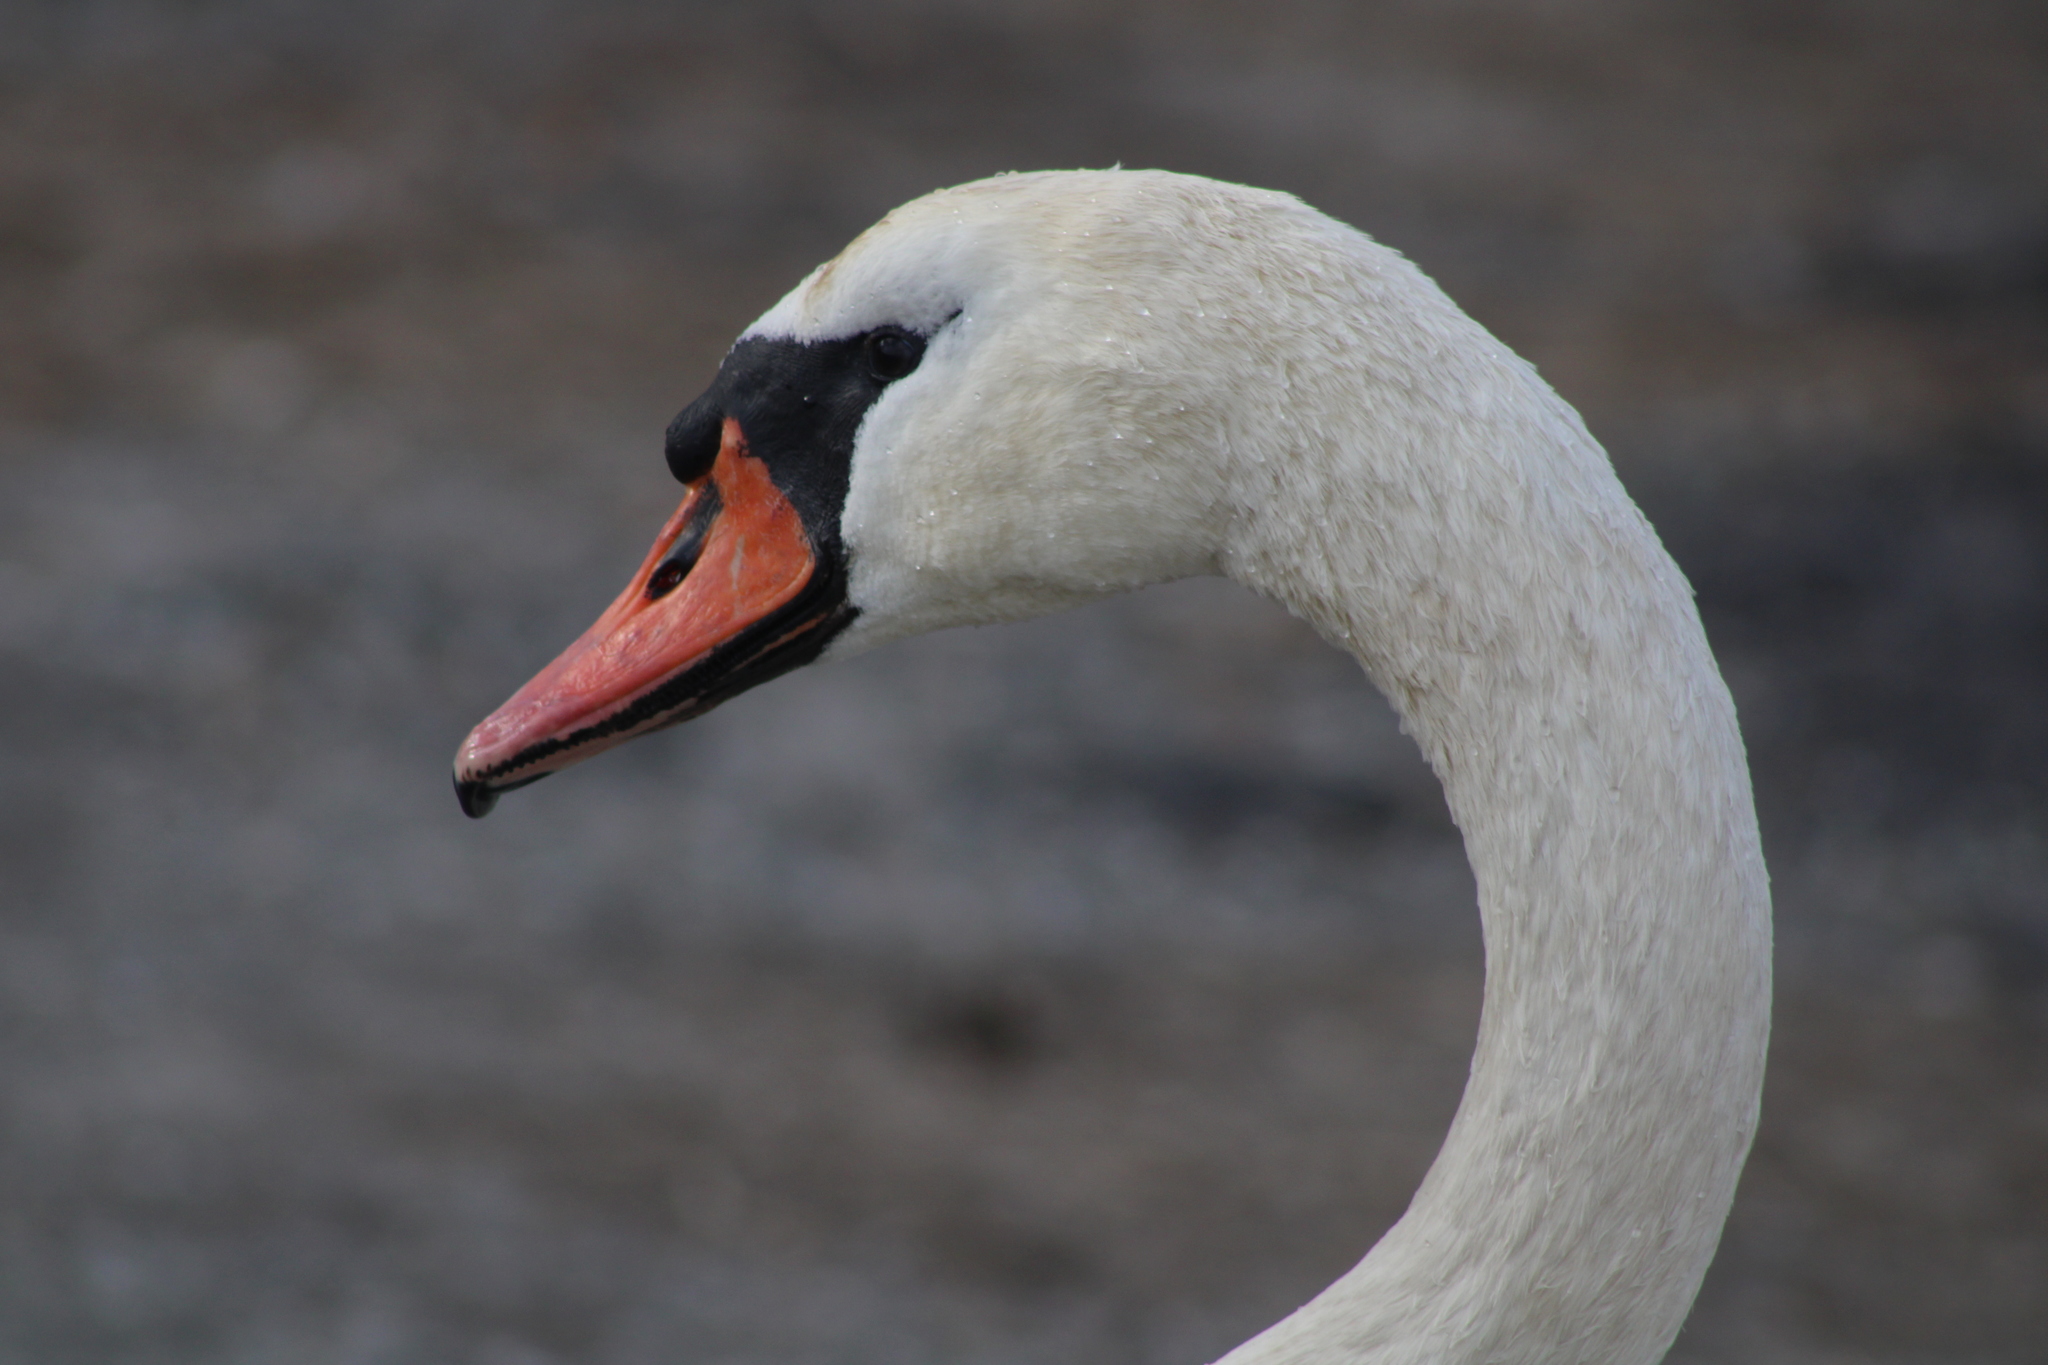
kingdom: Animalia
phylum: Chordata
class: Aves
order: Anseriformes
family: Anatidae
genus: Cygnus
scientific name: Cygnus olor
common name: Mute swan
